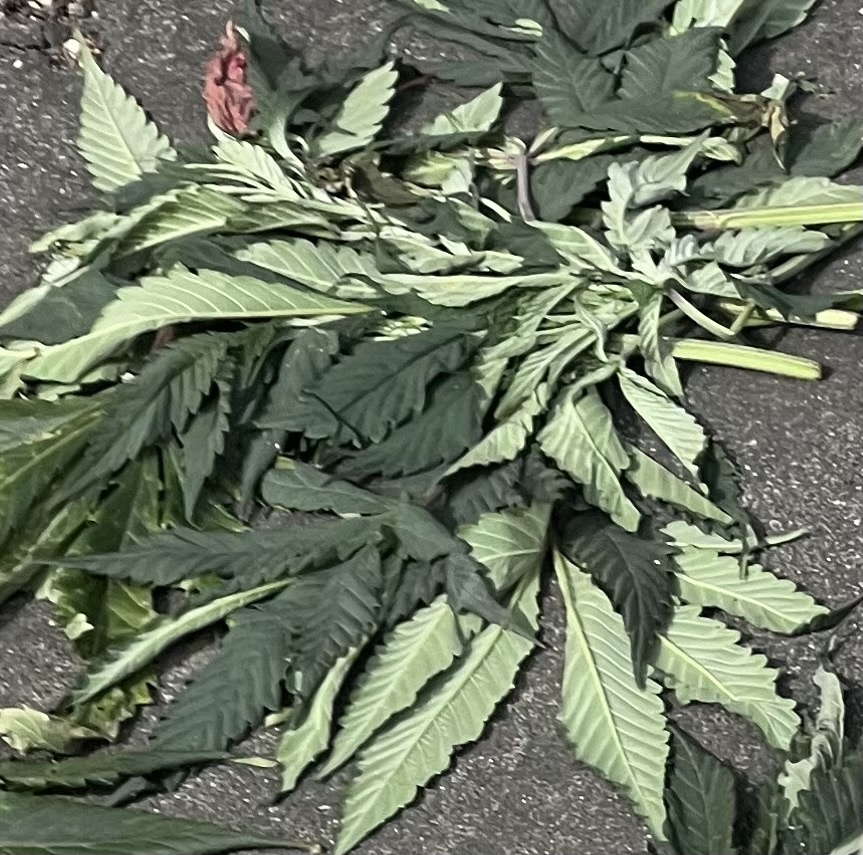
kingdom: Plantae
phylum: Tracheophyta
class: Magnoliopsida
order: Rosales
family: Cannabaceae
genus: Cannabis
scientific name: Cannabis sativa
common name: Hemp
